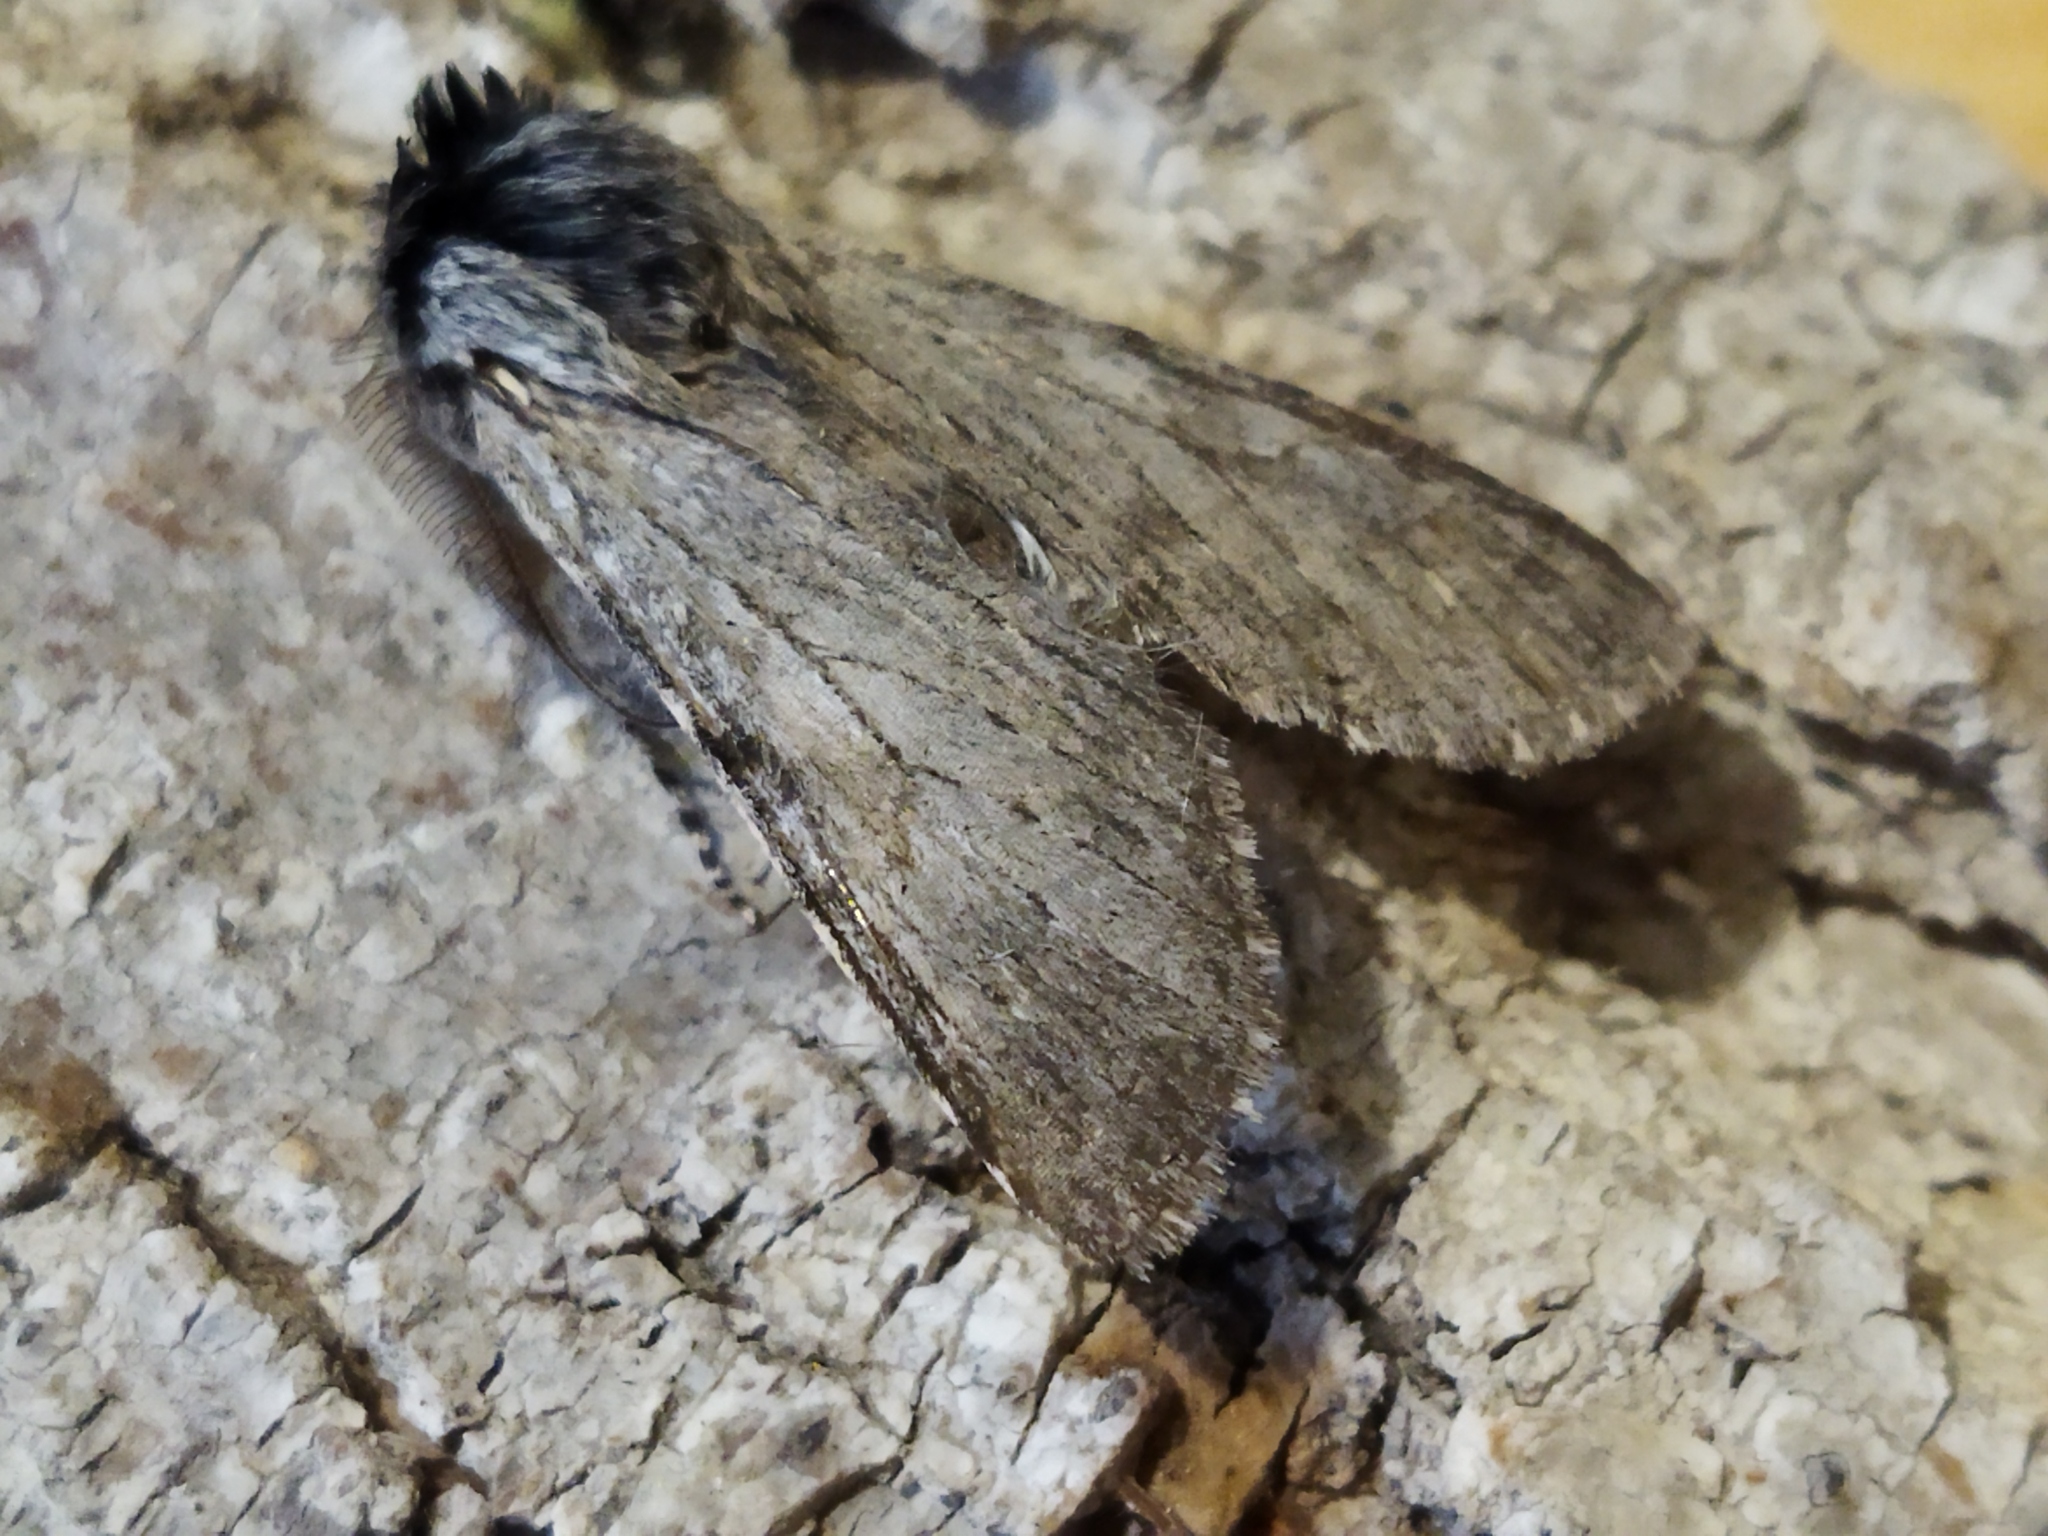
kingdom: Animalia
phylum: Arthropoda
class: Insecta
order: Lepidoptera
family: Notodontidae
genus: Dicranura
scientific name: Dicranura ulmi
